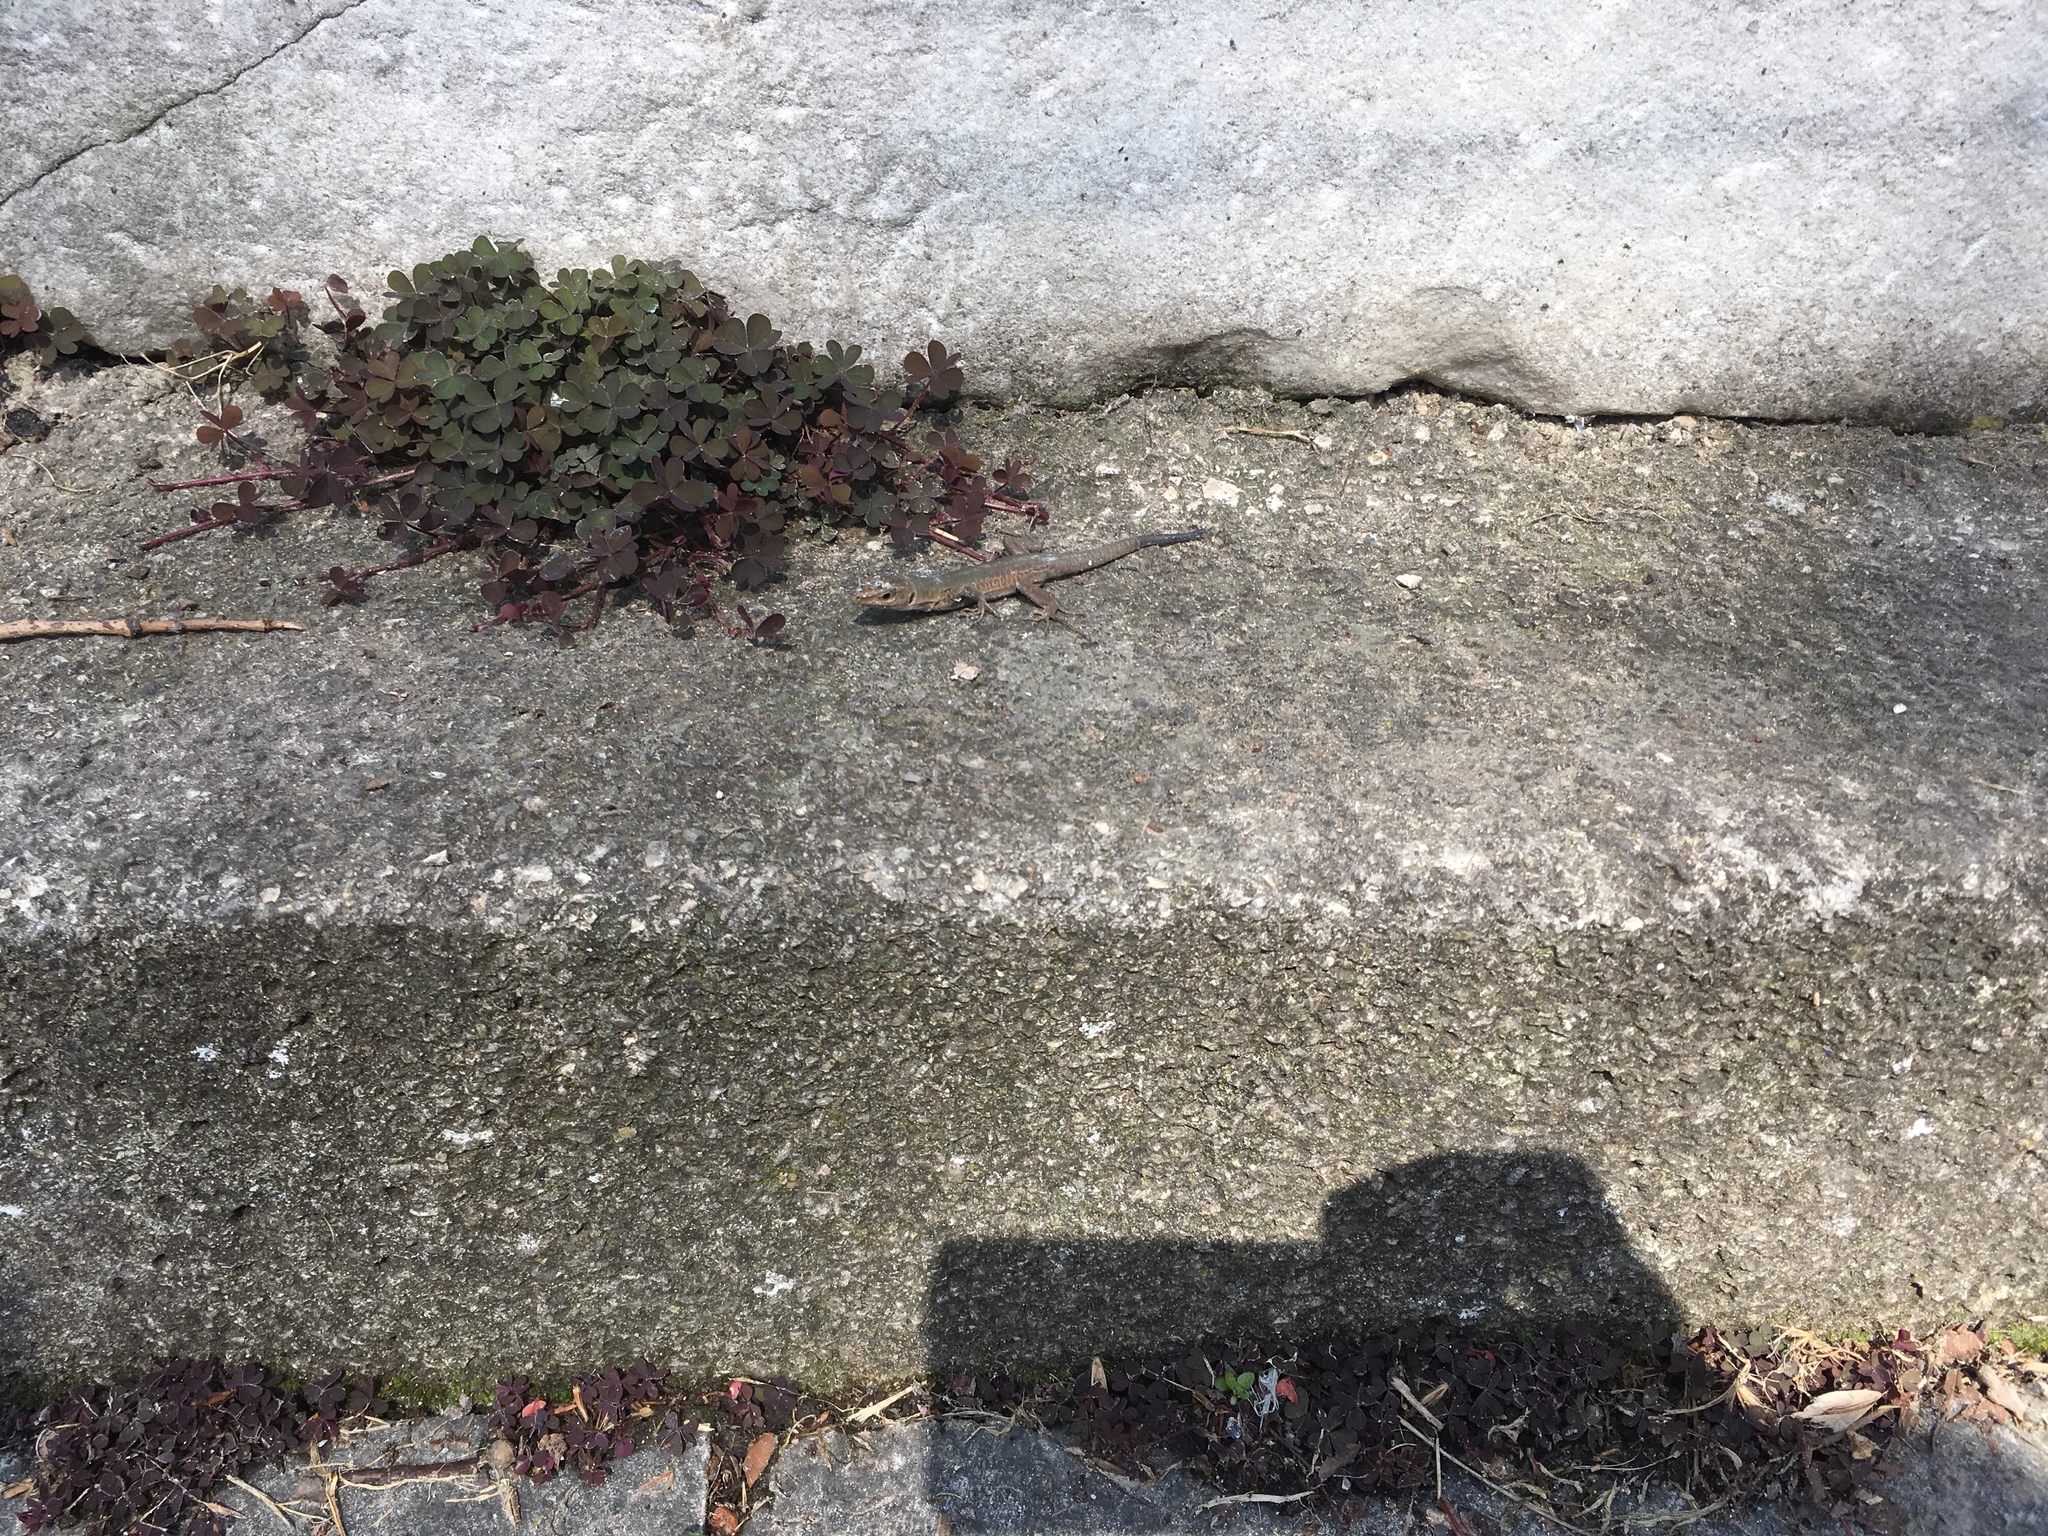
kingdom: Animalia
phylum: Chordata
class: Squamata
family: Lacertidae
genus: Podarcis
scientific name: Podarcis siculus
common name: Italian wall lizard
